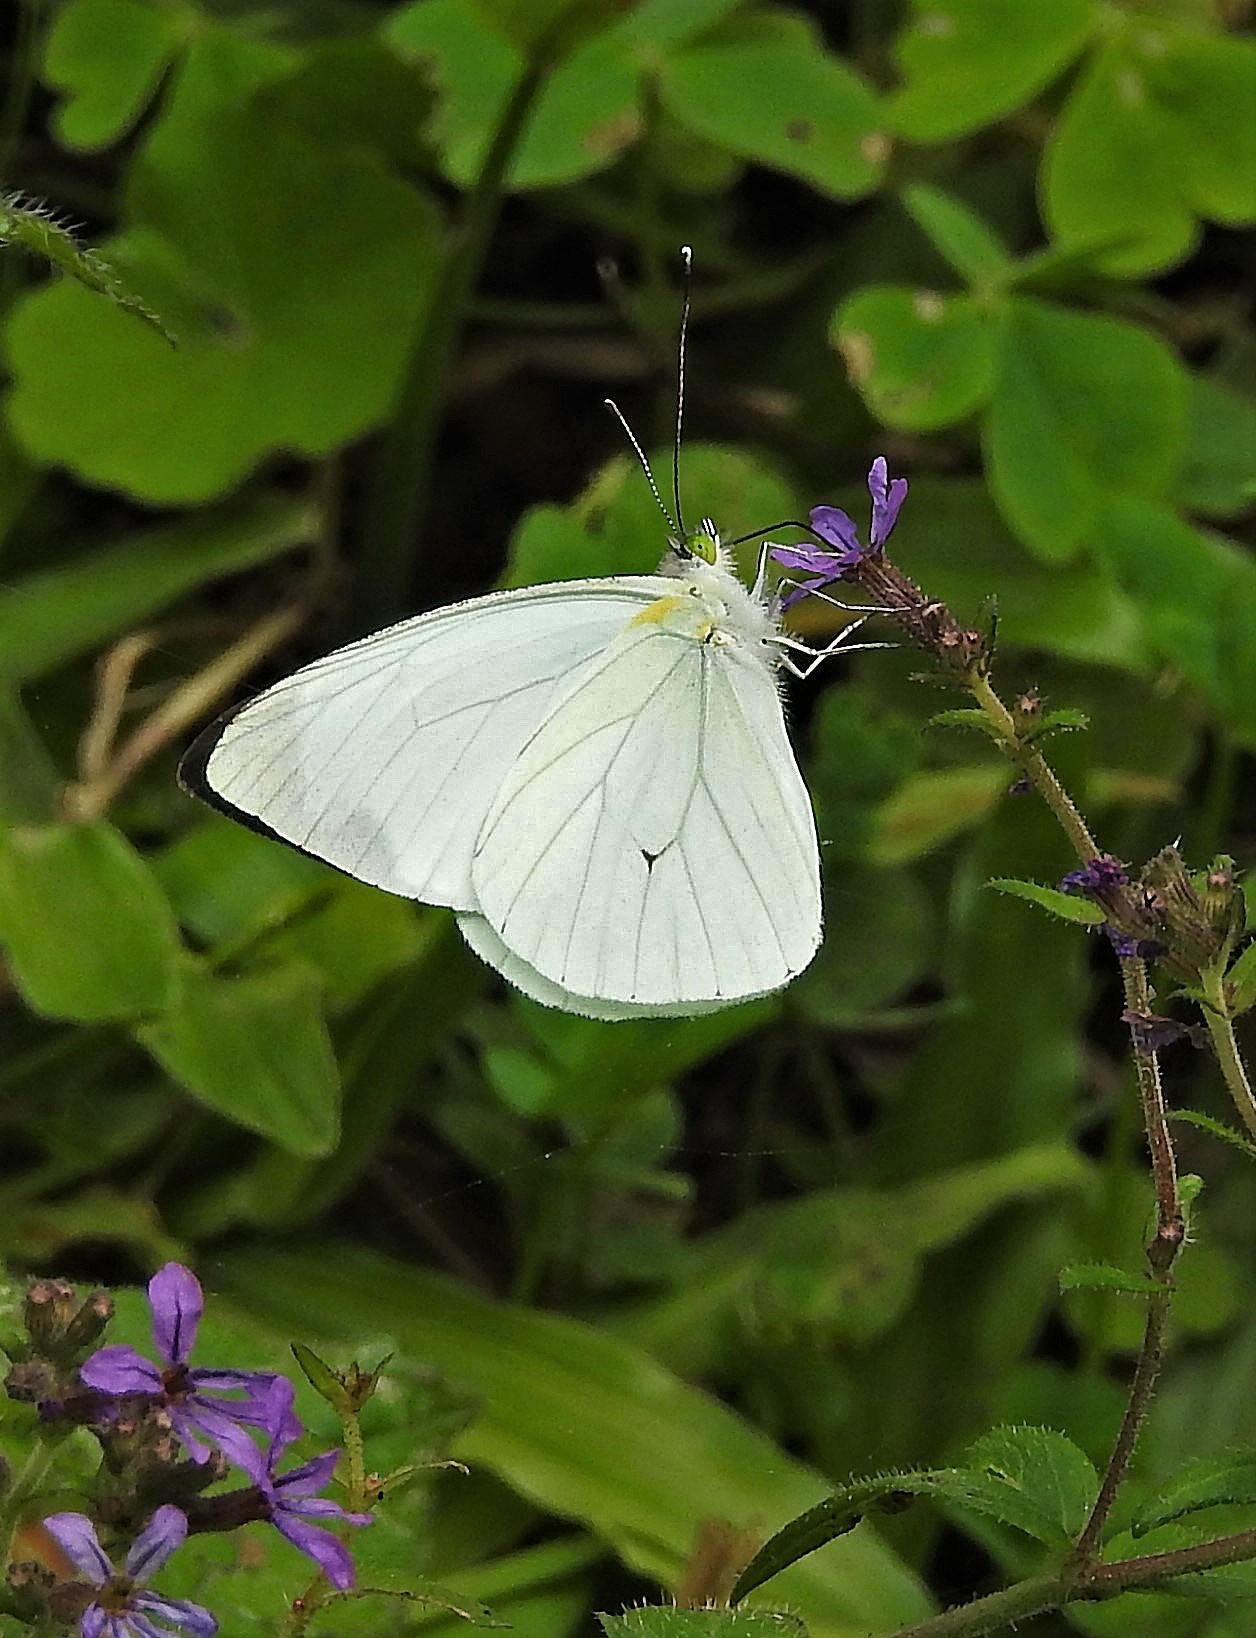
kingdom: Animalia
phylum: Arthropoda
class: Insecta
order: Lepidoptera
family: Pieridae
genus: Leptophobia
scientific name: Leptophobia aripa
